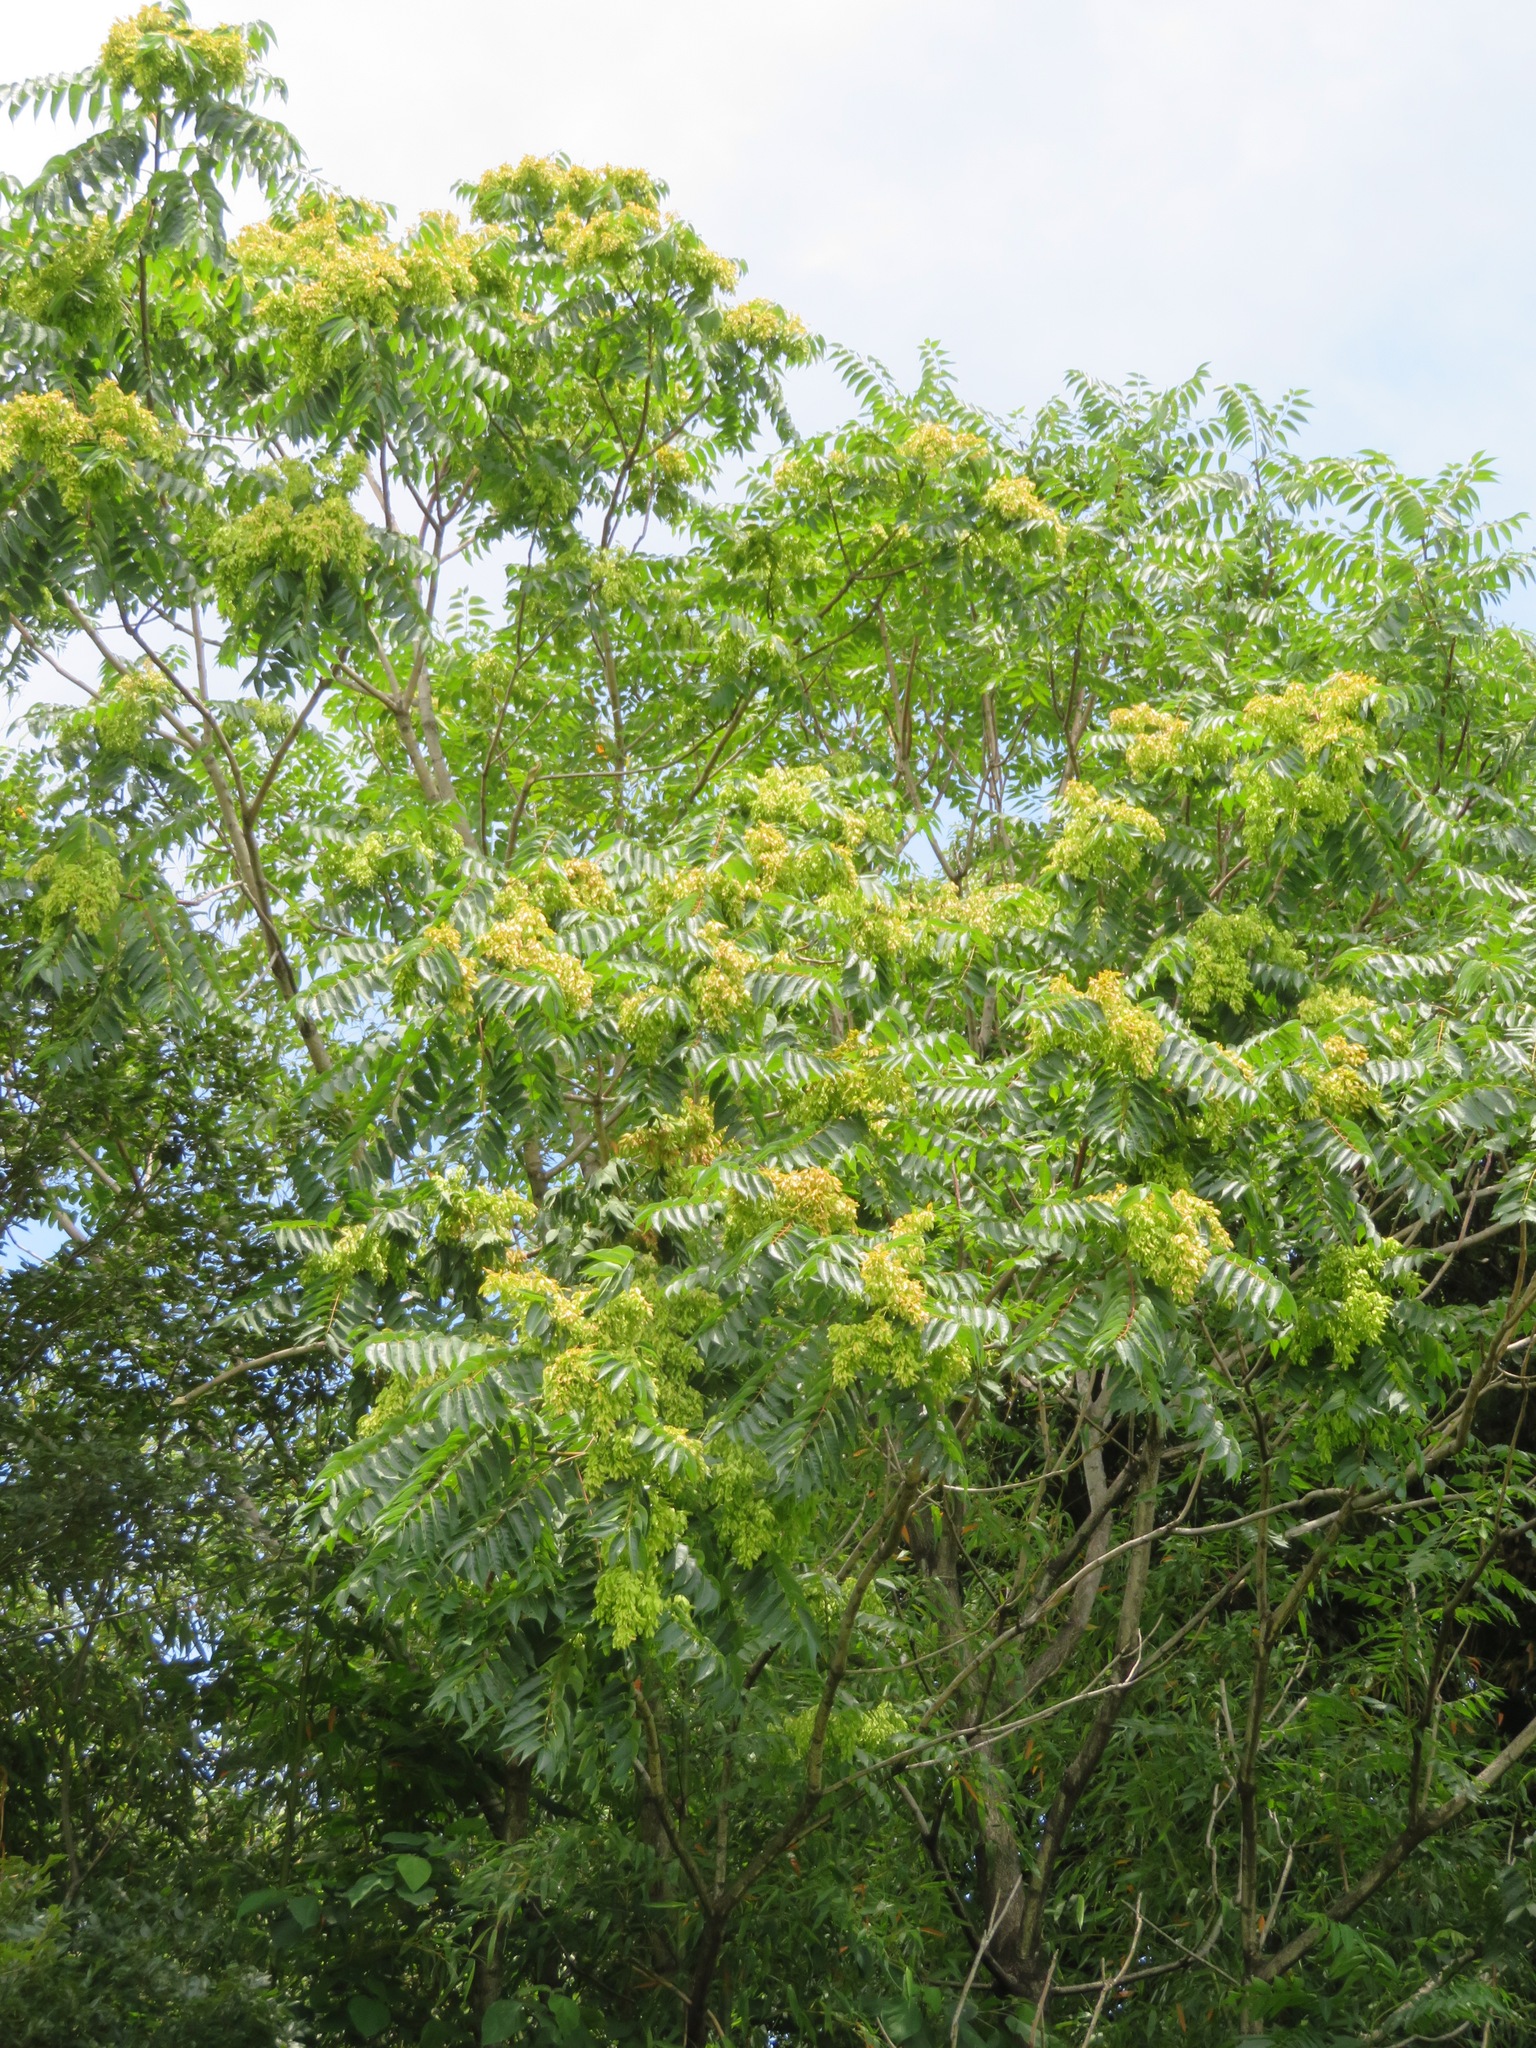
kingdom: Plantae
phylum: Tracheophyta
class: Magnoliopsida
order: Sapindales
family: Simaroubaceae
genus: Ailanthus
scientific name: Ailanthus altissima
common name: Tree-of-heaven
